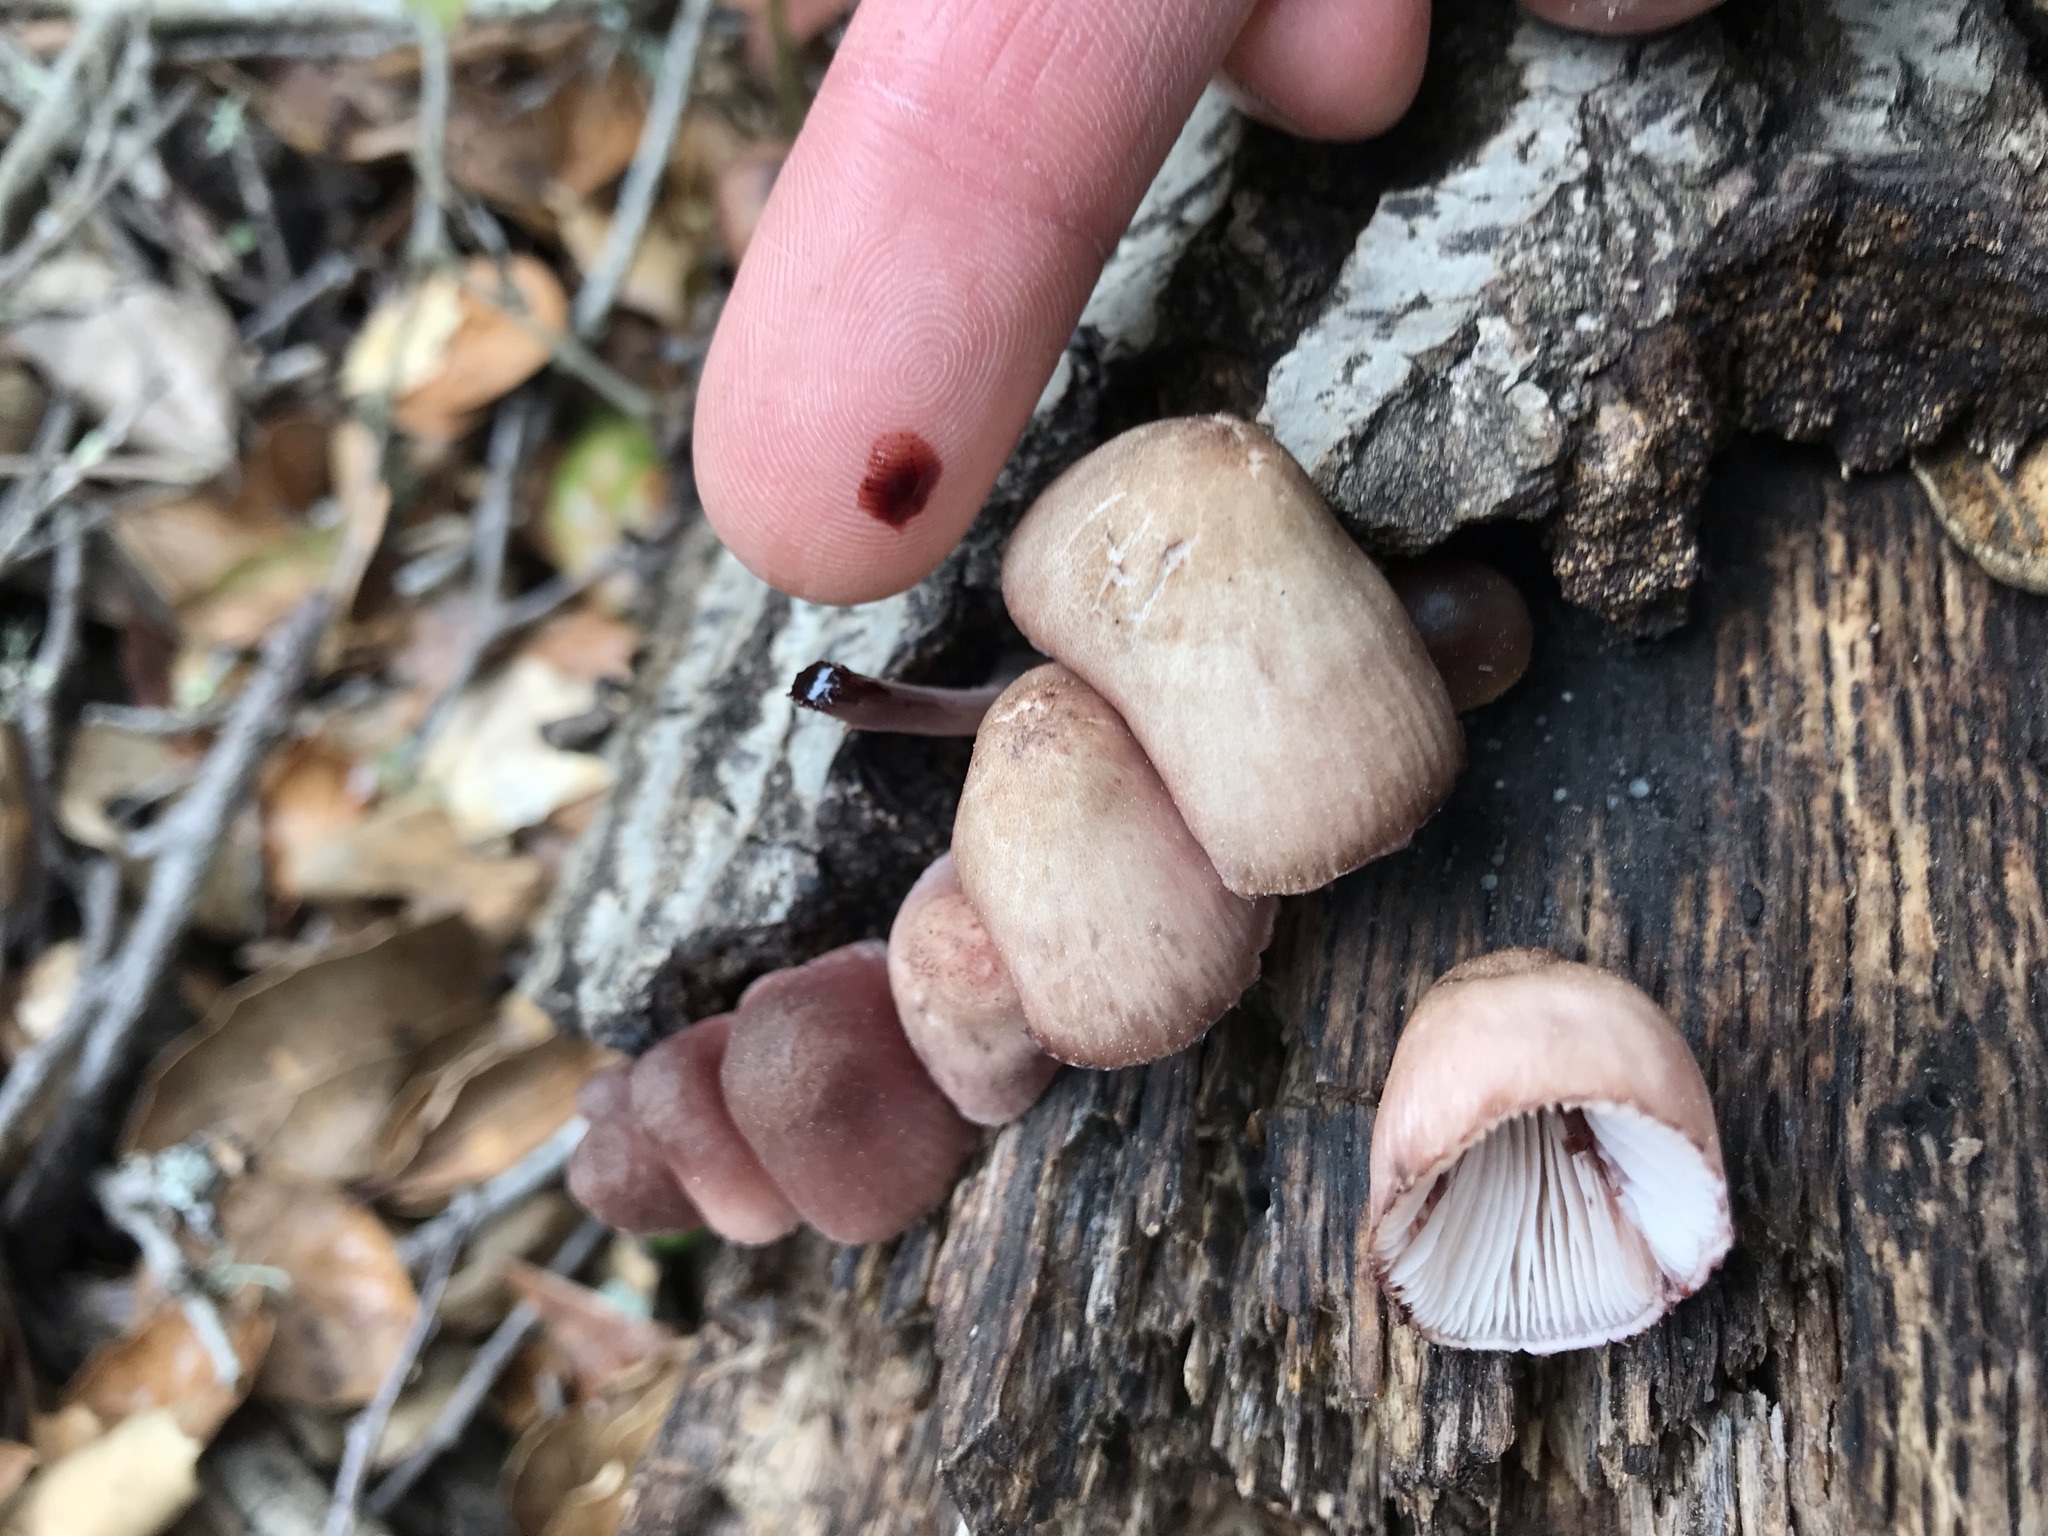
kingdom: Fungi
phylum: Basidiomycota
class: Agaricomycetes
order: Agaricales
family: Mycenaceae
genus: Mycena
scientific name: Mycena haematopus
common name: Burgundydrop bonnet
